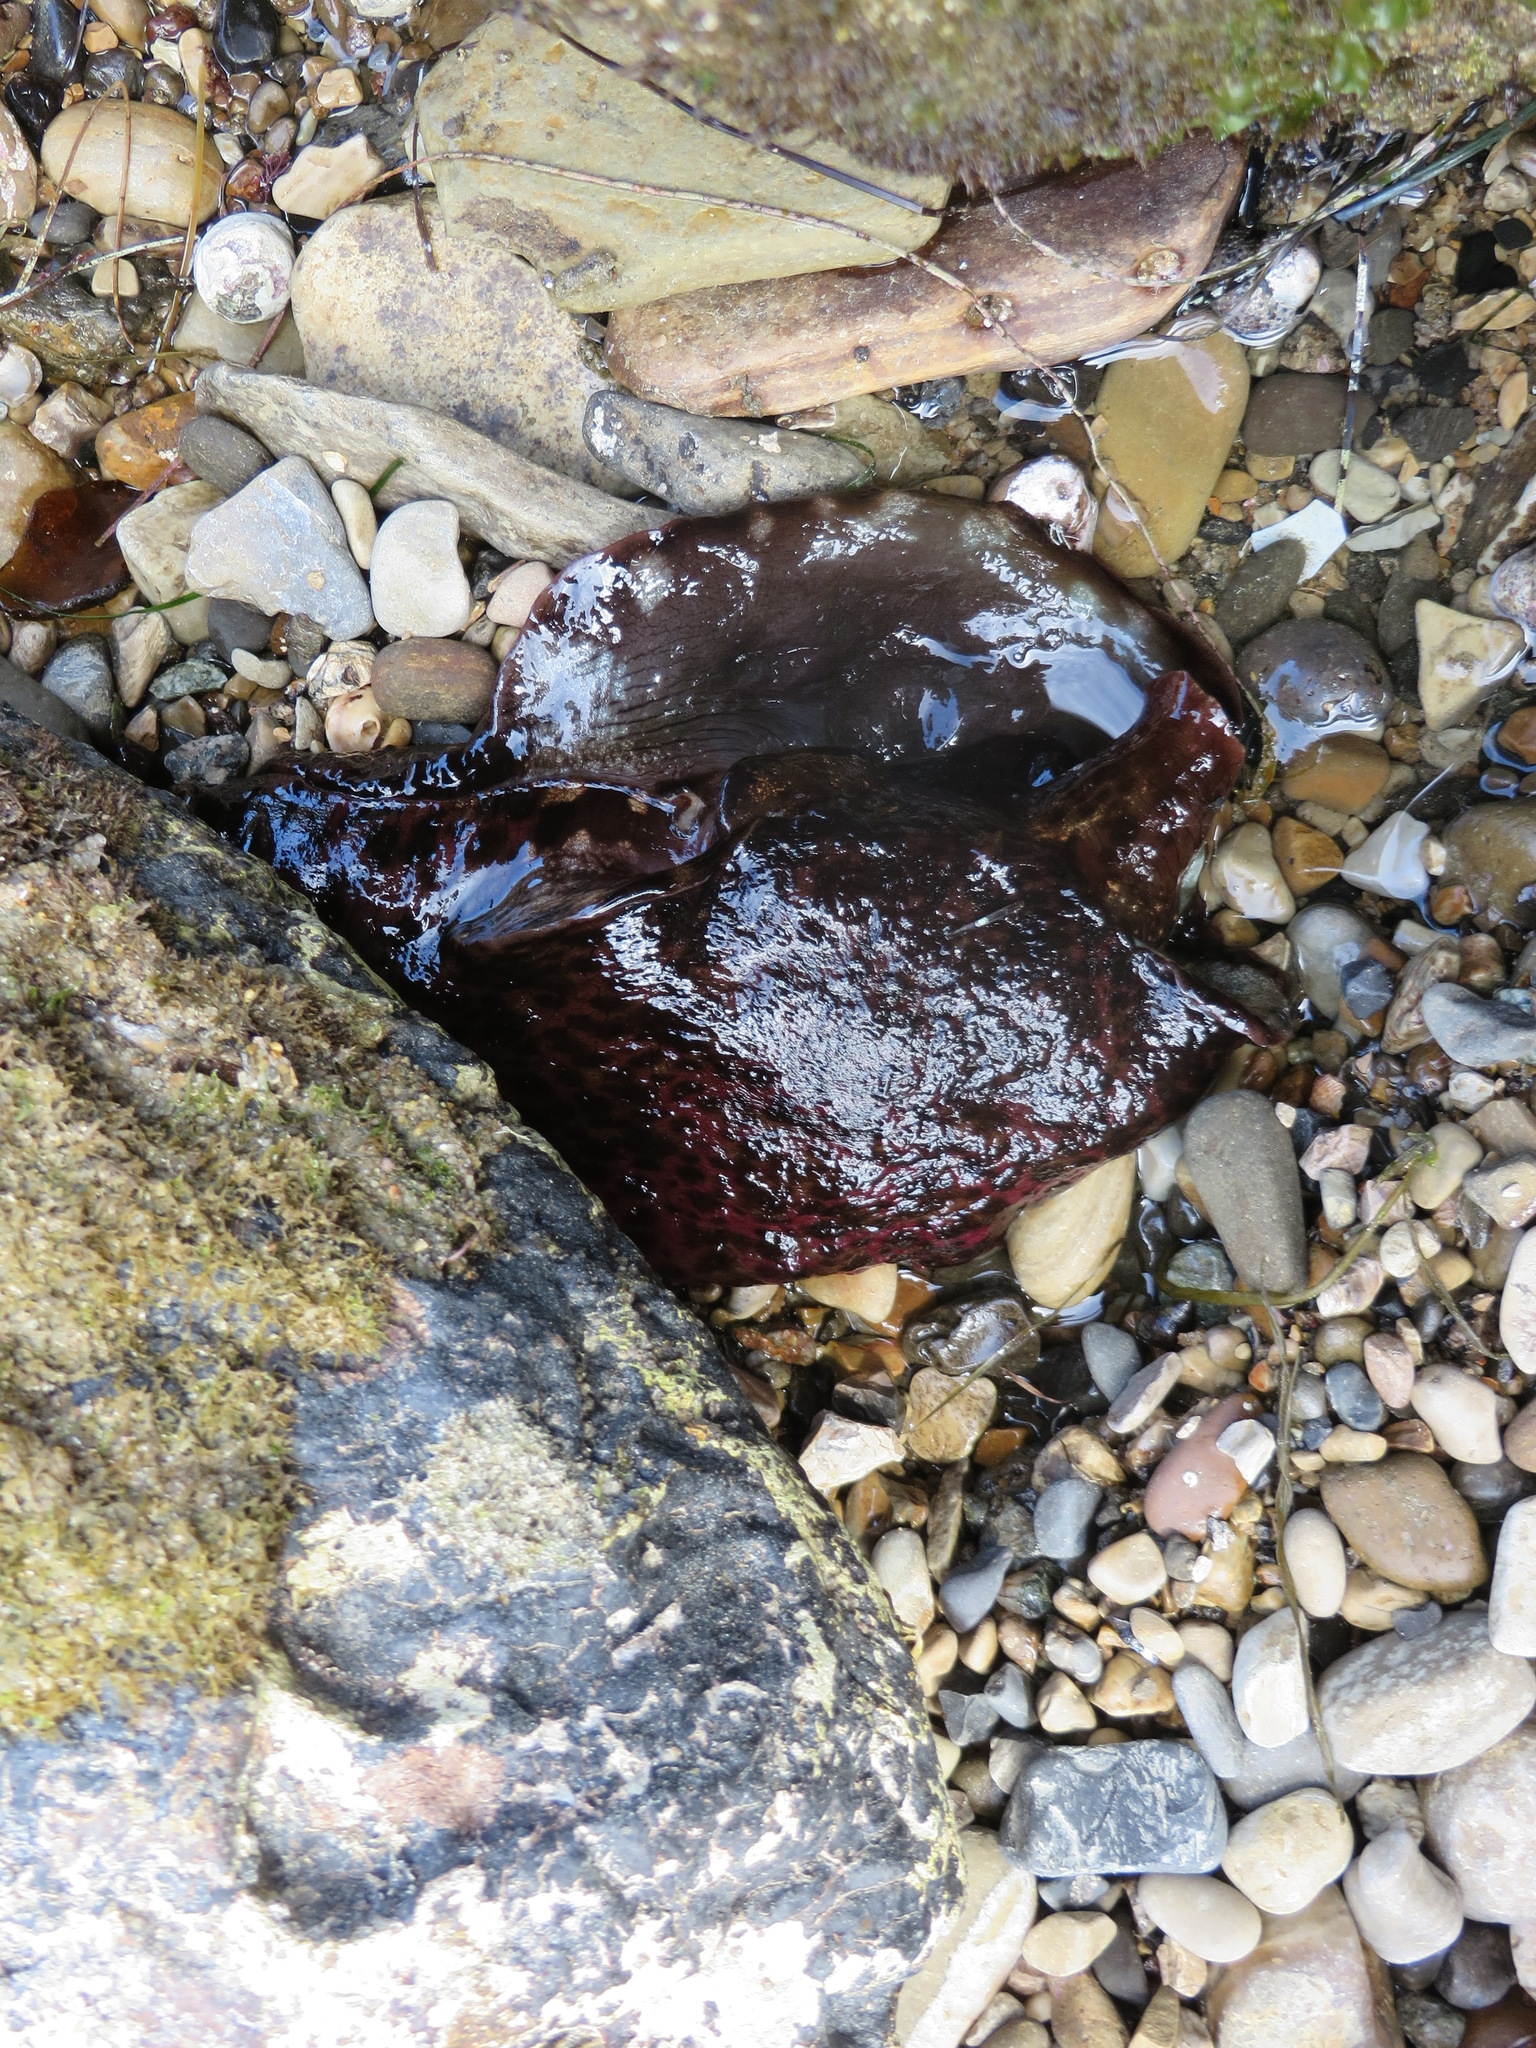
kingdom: Animalia
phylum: Mollusca
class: Gastropoda
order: Aplysiida
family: Aplysiidae
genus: Aplysia
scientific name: Aplysia californica
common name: California seahare
